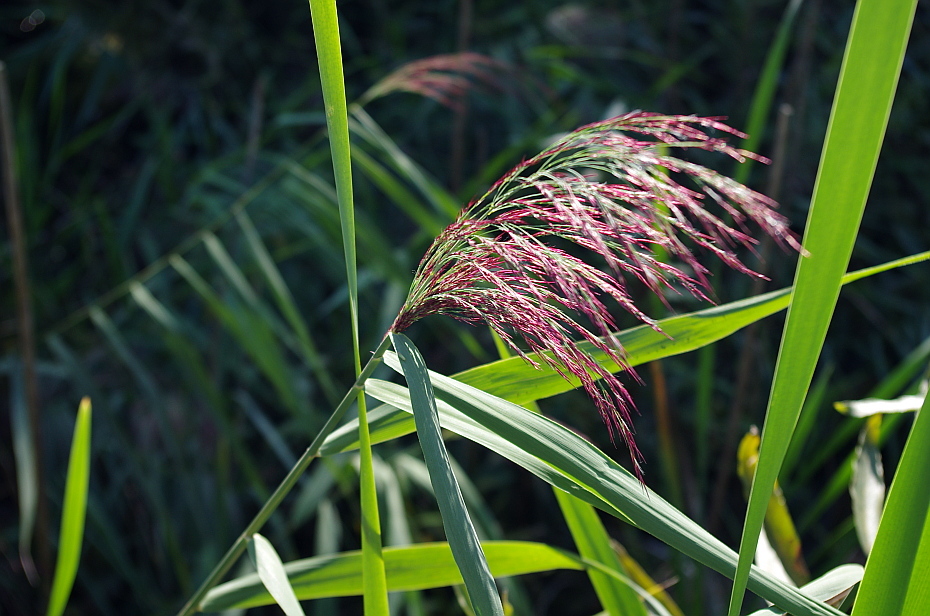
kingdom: Plantae
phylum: Tracheophyta
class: Liliopsida
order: Poales
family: Poaceae
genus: Phragmites
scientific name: Phragmites australis
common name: Common reed
